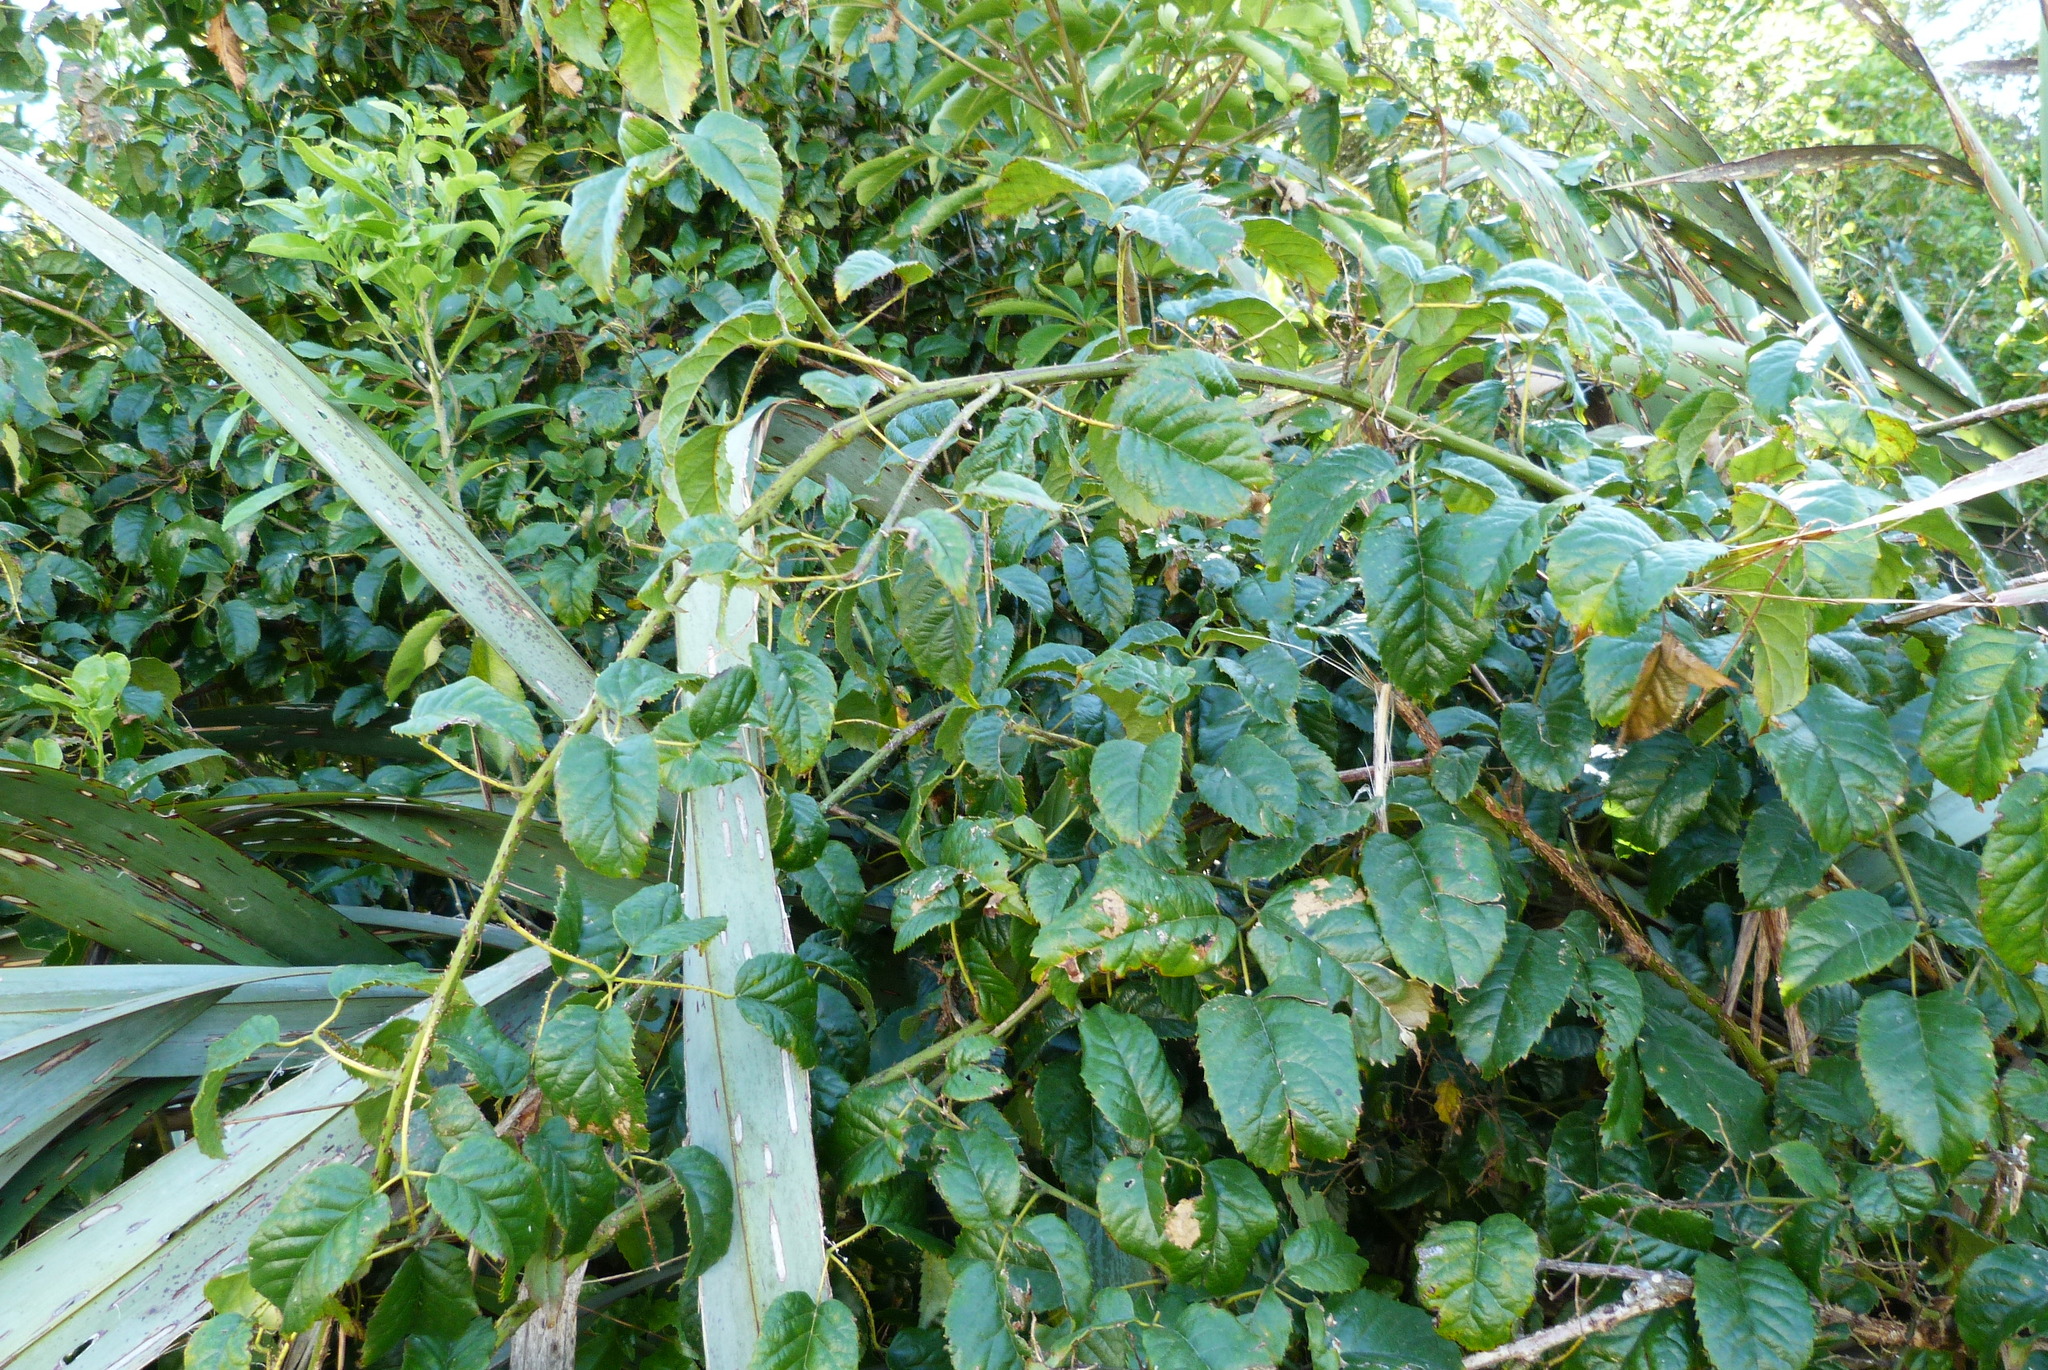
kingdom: Plantae
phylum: Tracheophyta
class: Magnoliopsida
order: Rosales
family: Rosaceae
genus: Rubus
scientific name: Rubus cissoides
